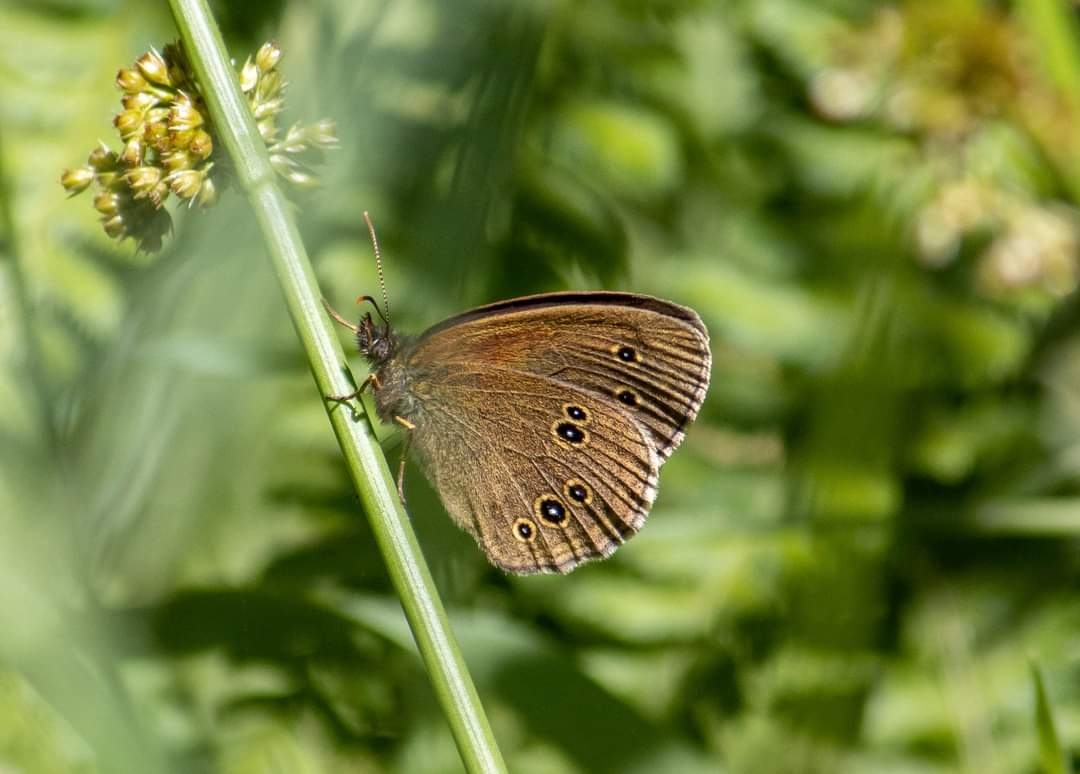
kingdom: Animalia
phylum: Arthropoda
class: Insecta
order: Lepidoptera
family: Nymphalidae
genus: Aphantopus
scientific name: Aphantopus hyperantus
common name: Ringlet
